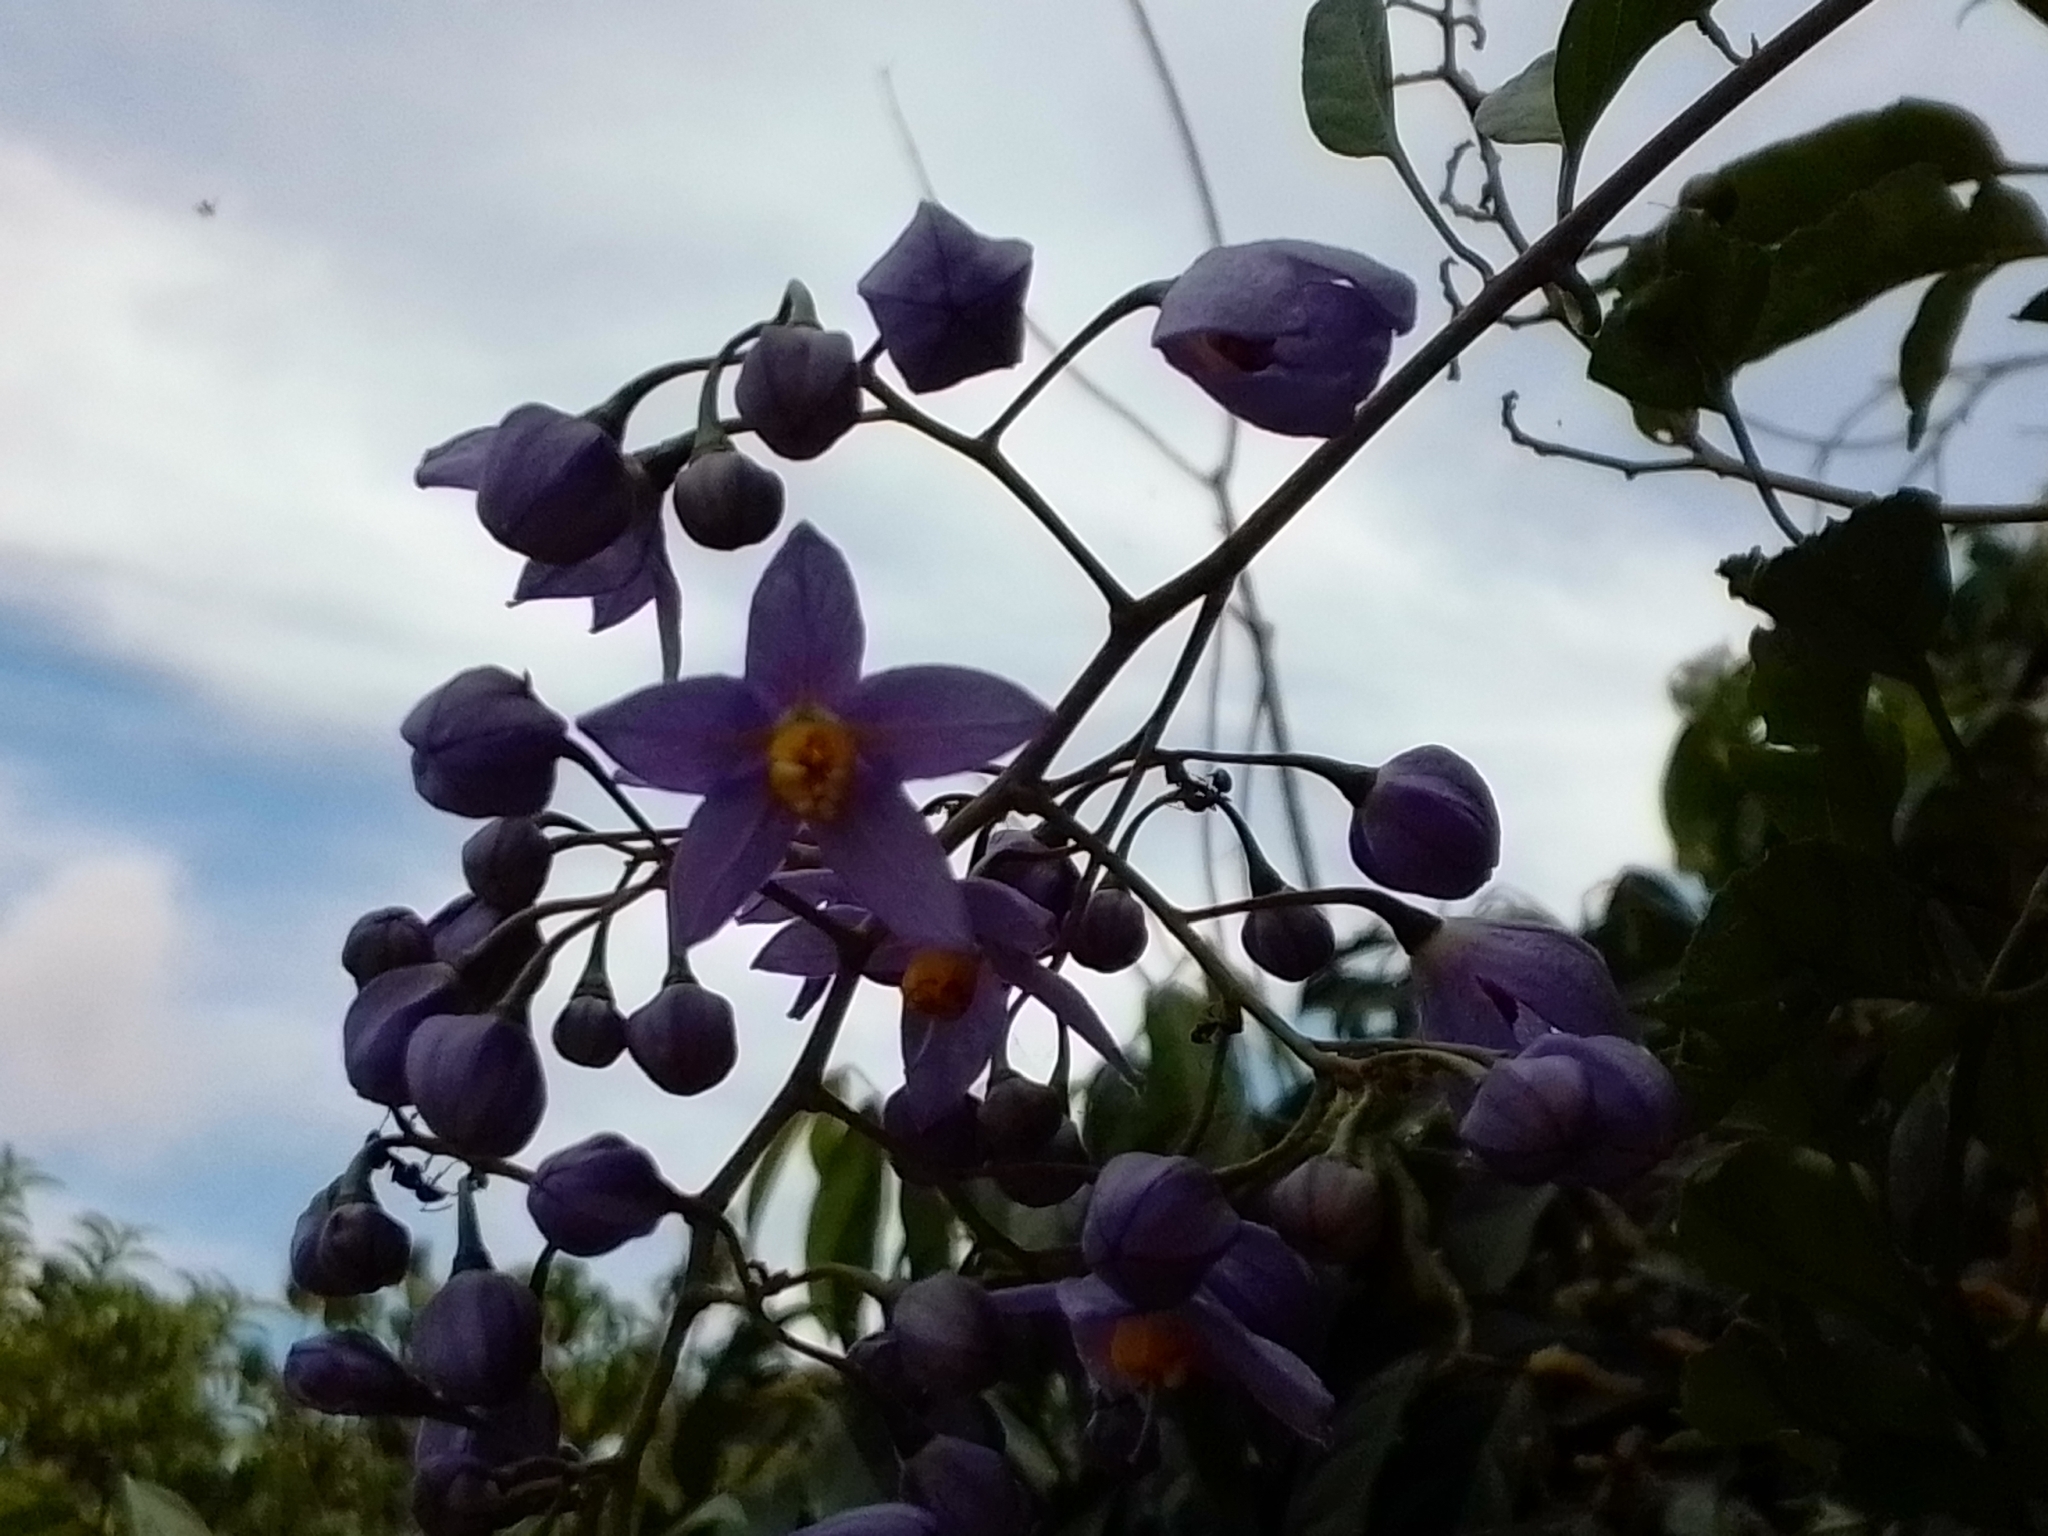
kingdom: Plantae
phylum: Tracheophyta
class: Magnoliopsida
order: Solanales
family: Solanaceae
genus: Solanum
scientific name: Solanum seaforthianum
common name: Brazilian nightshade
